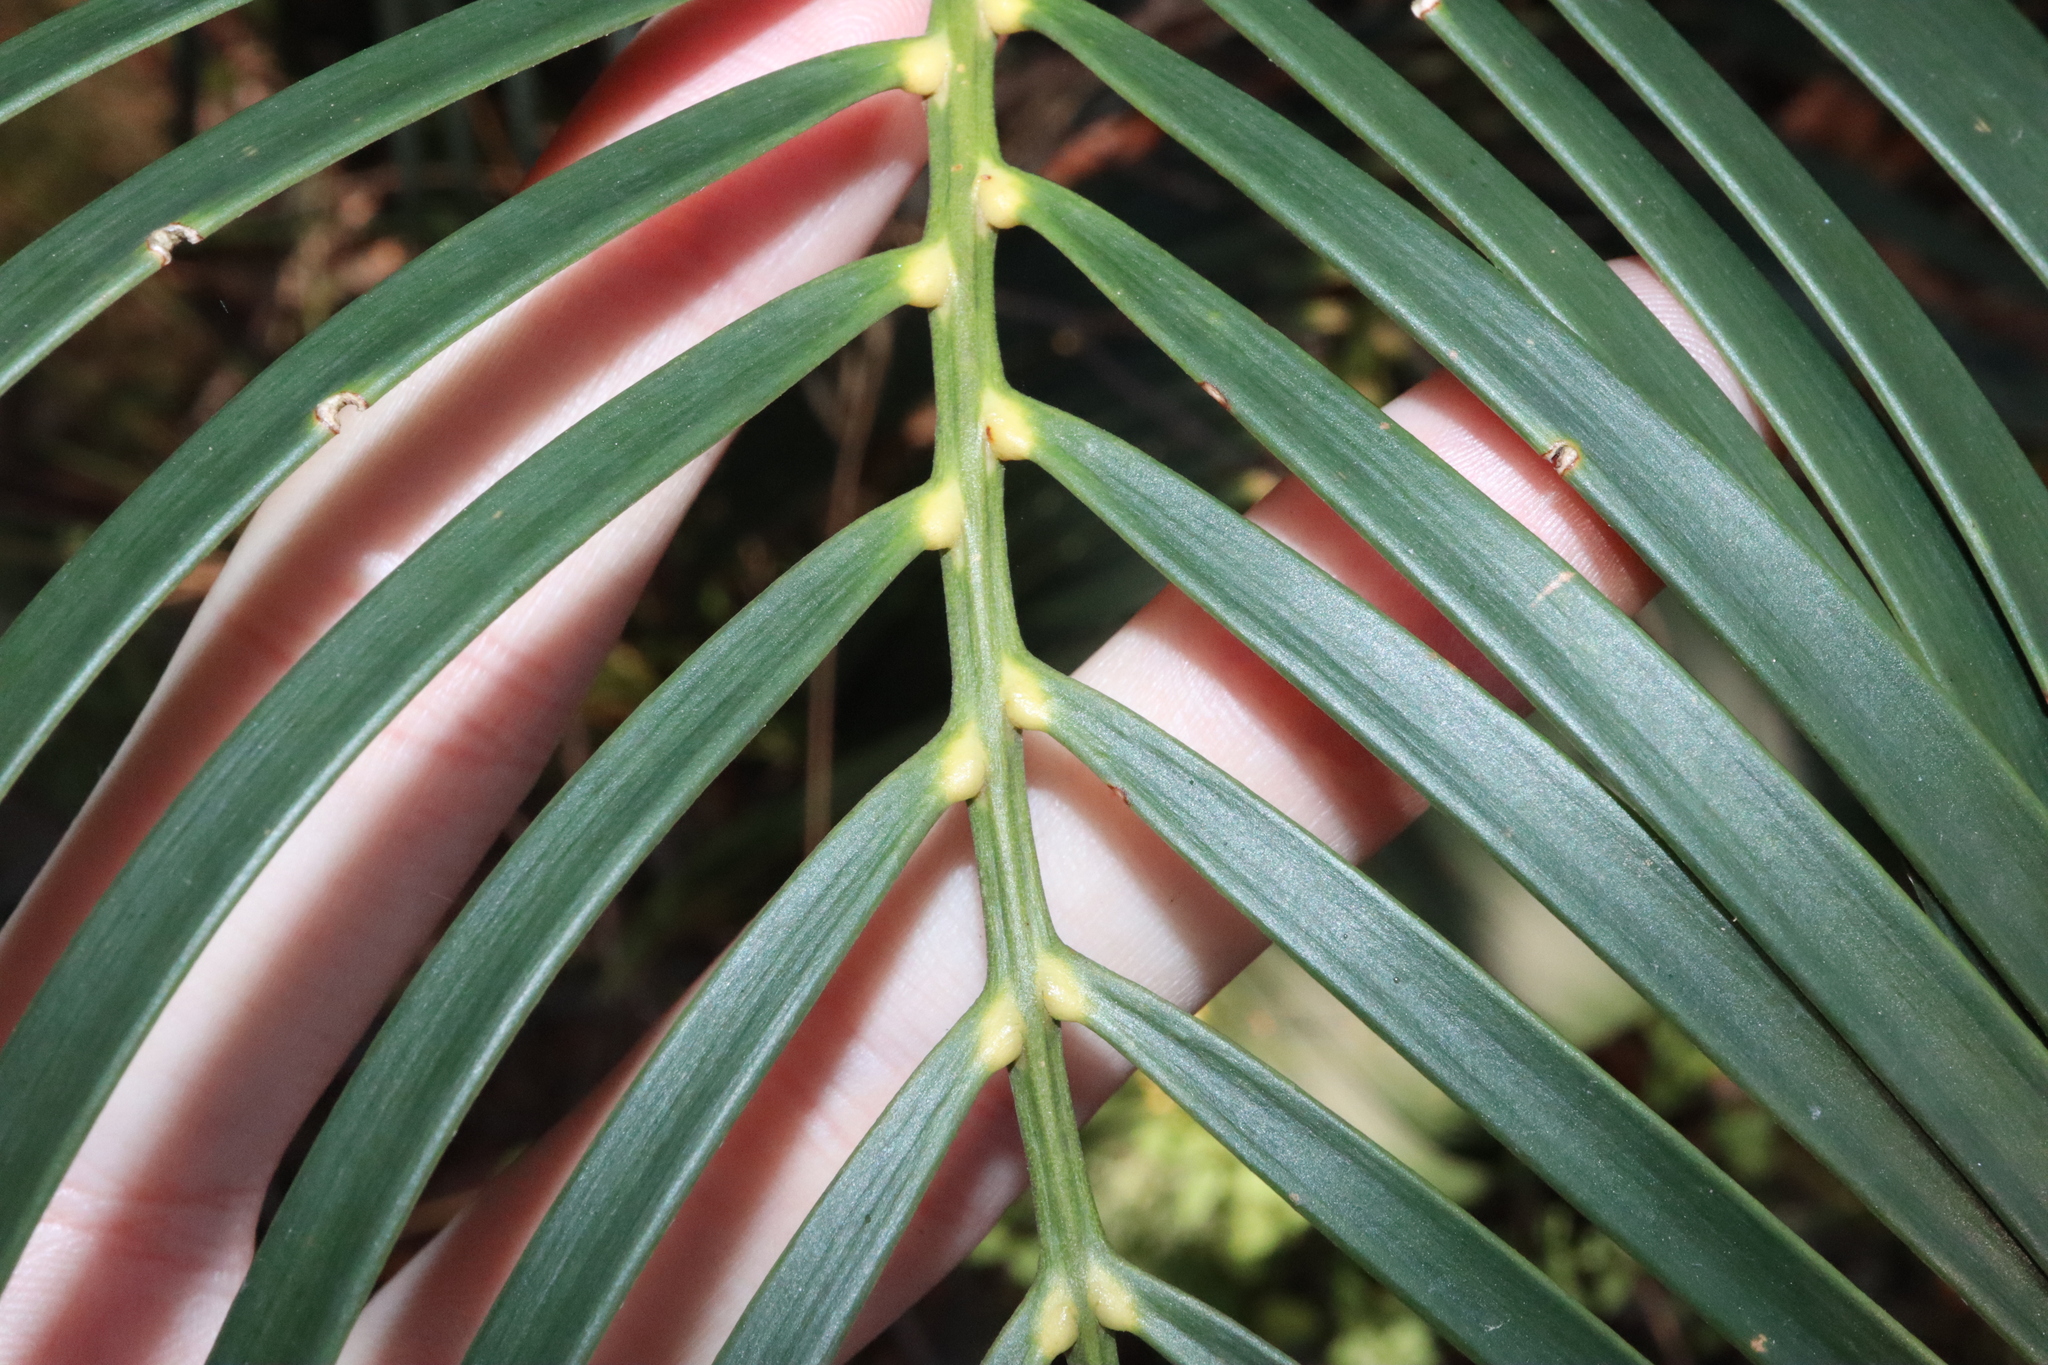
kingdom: Plantae
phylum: Tracheophyta
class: Cycadopsida
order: Cycadales
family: Zamiaceae
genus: Macrozamia
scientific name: Macrozamia communis
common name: Burrawong
